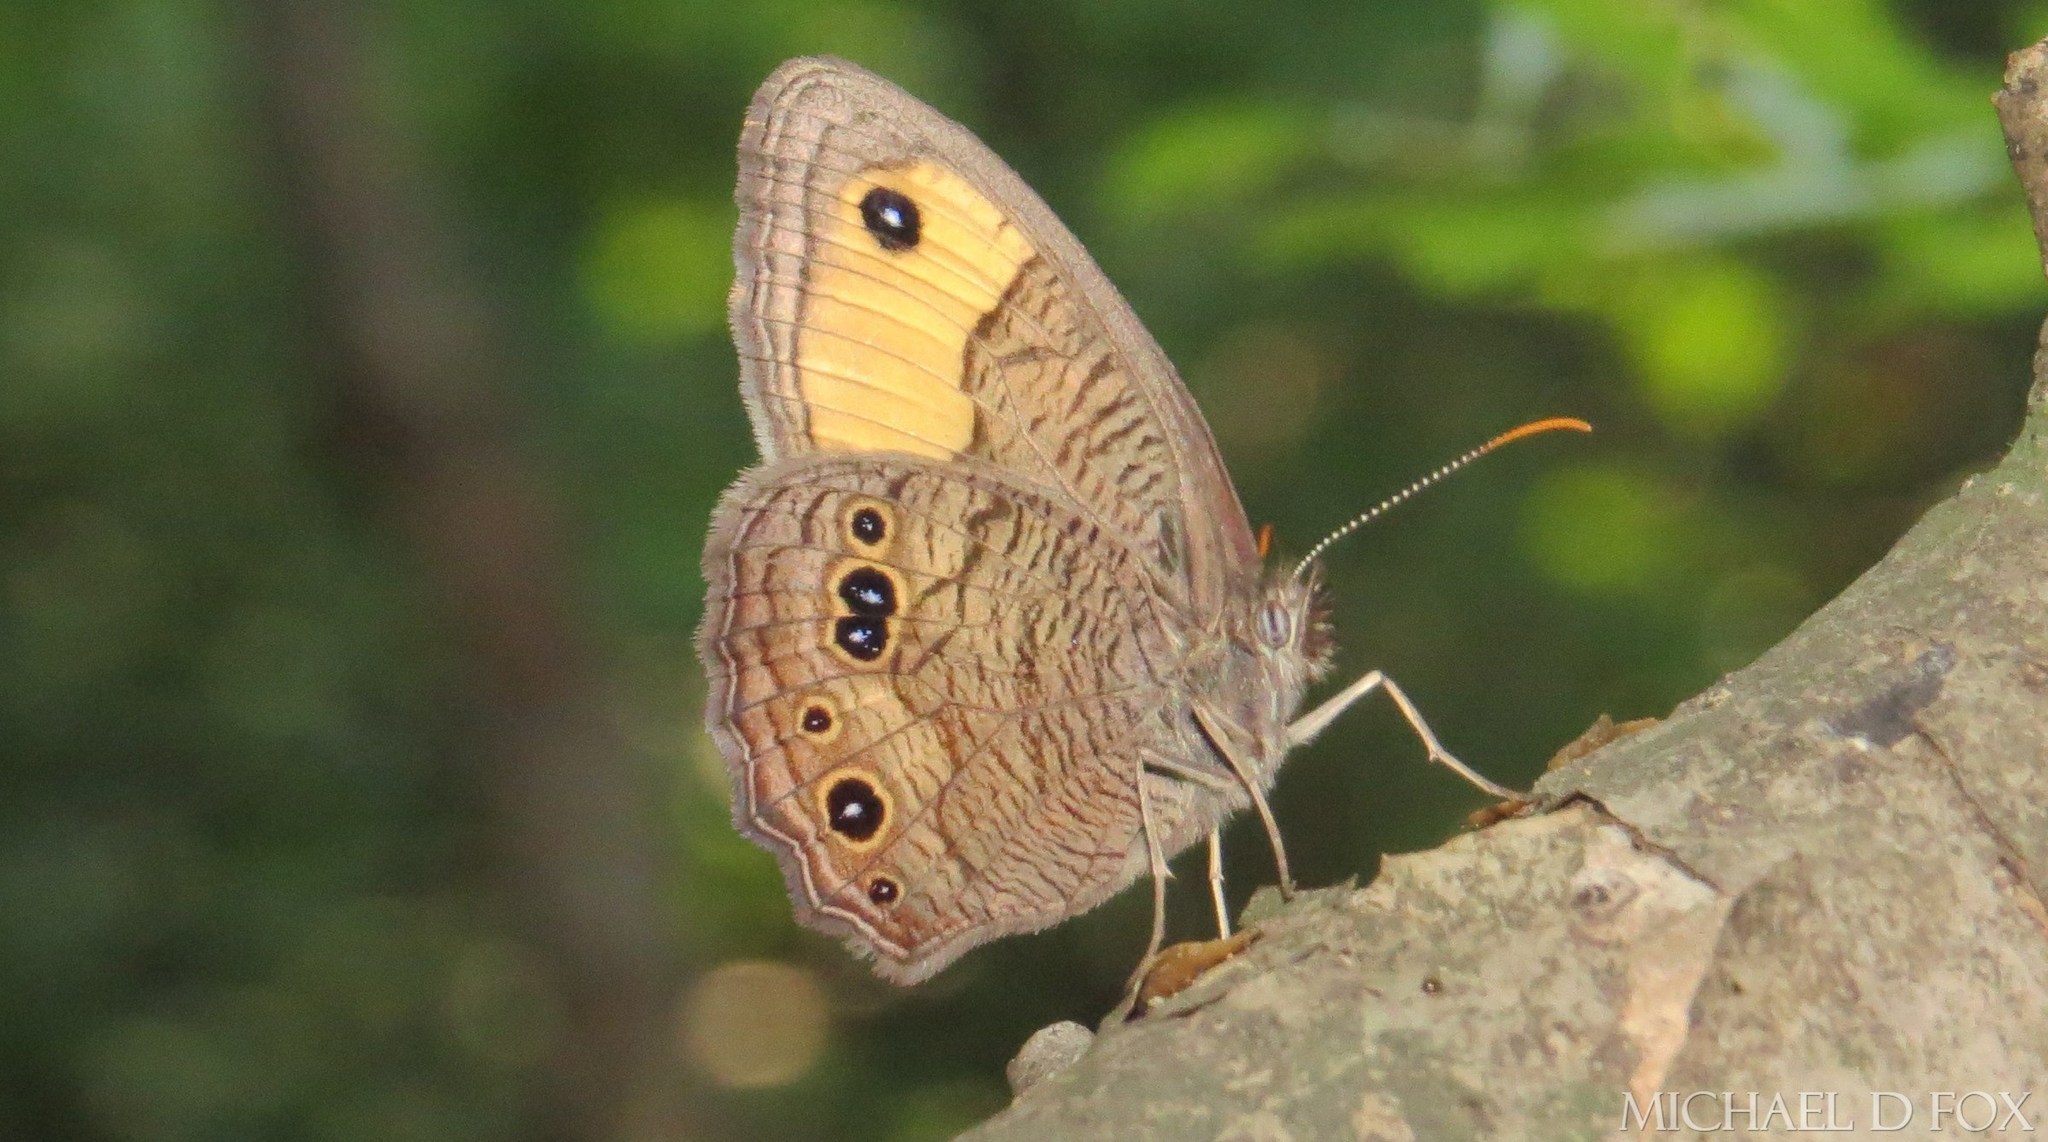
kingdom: Animalia
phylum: Arthropoda
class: Insecta
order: Lepidoptera
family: Nymphalidae
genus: Cercyonis
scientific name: Cercyonis pegala
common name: Common wood-nymph
